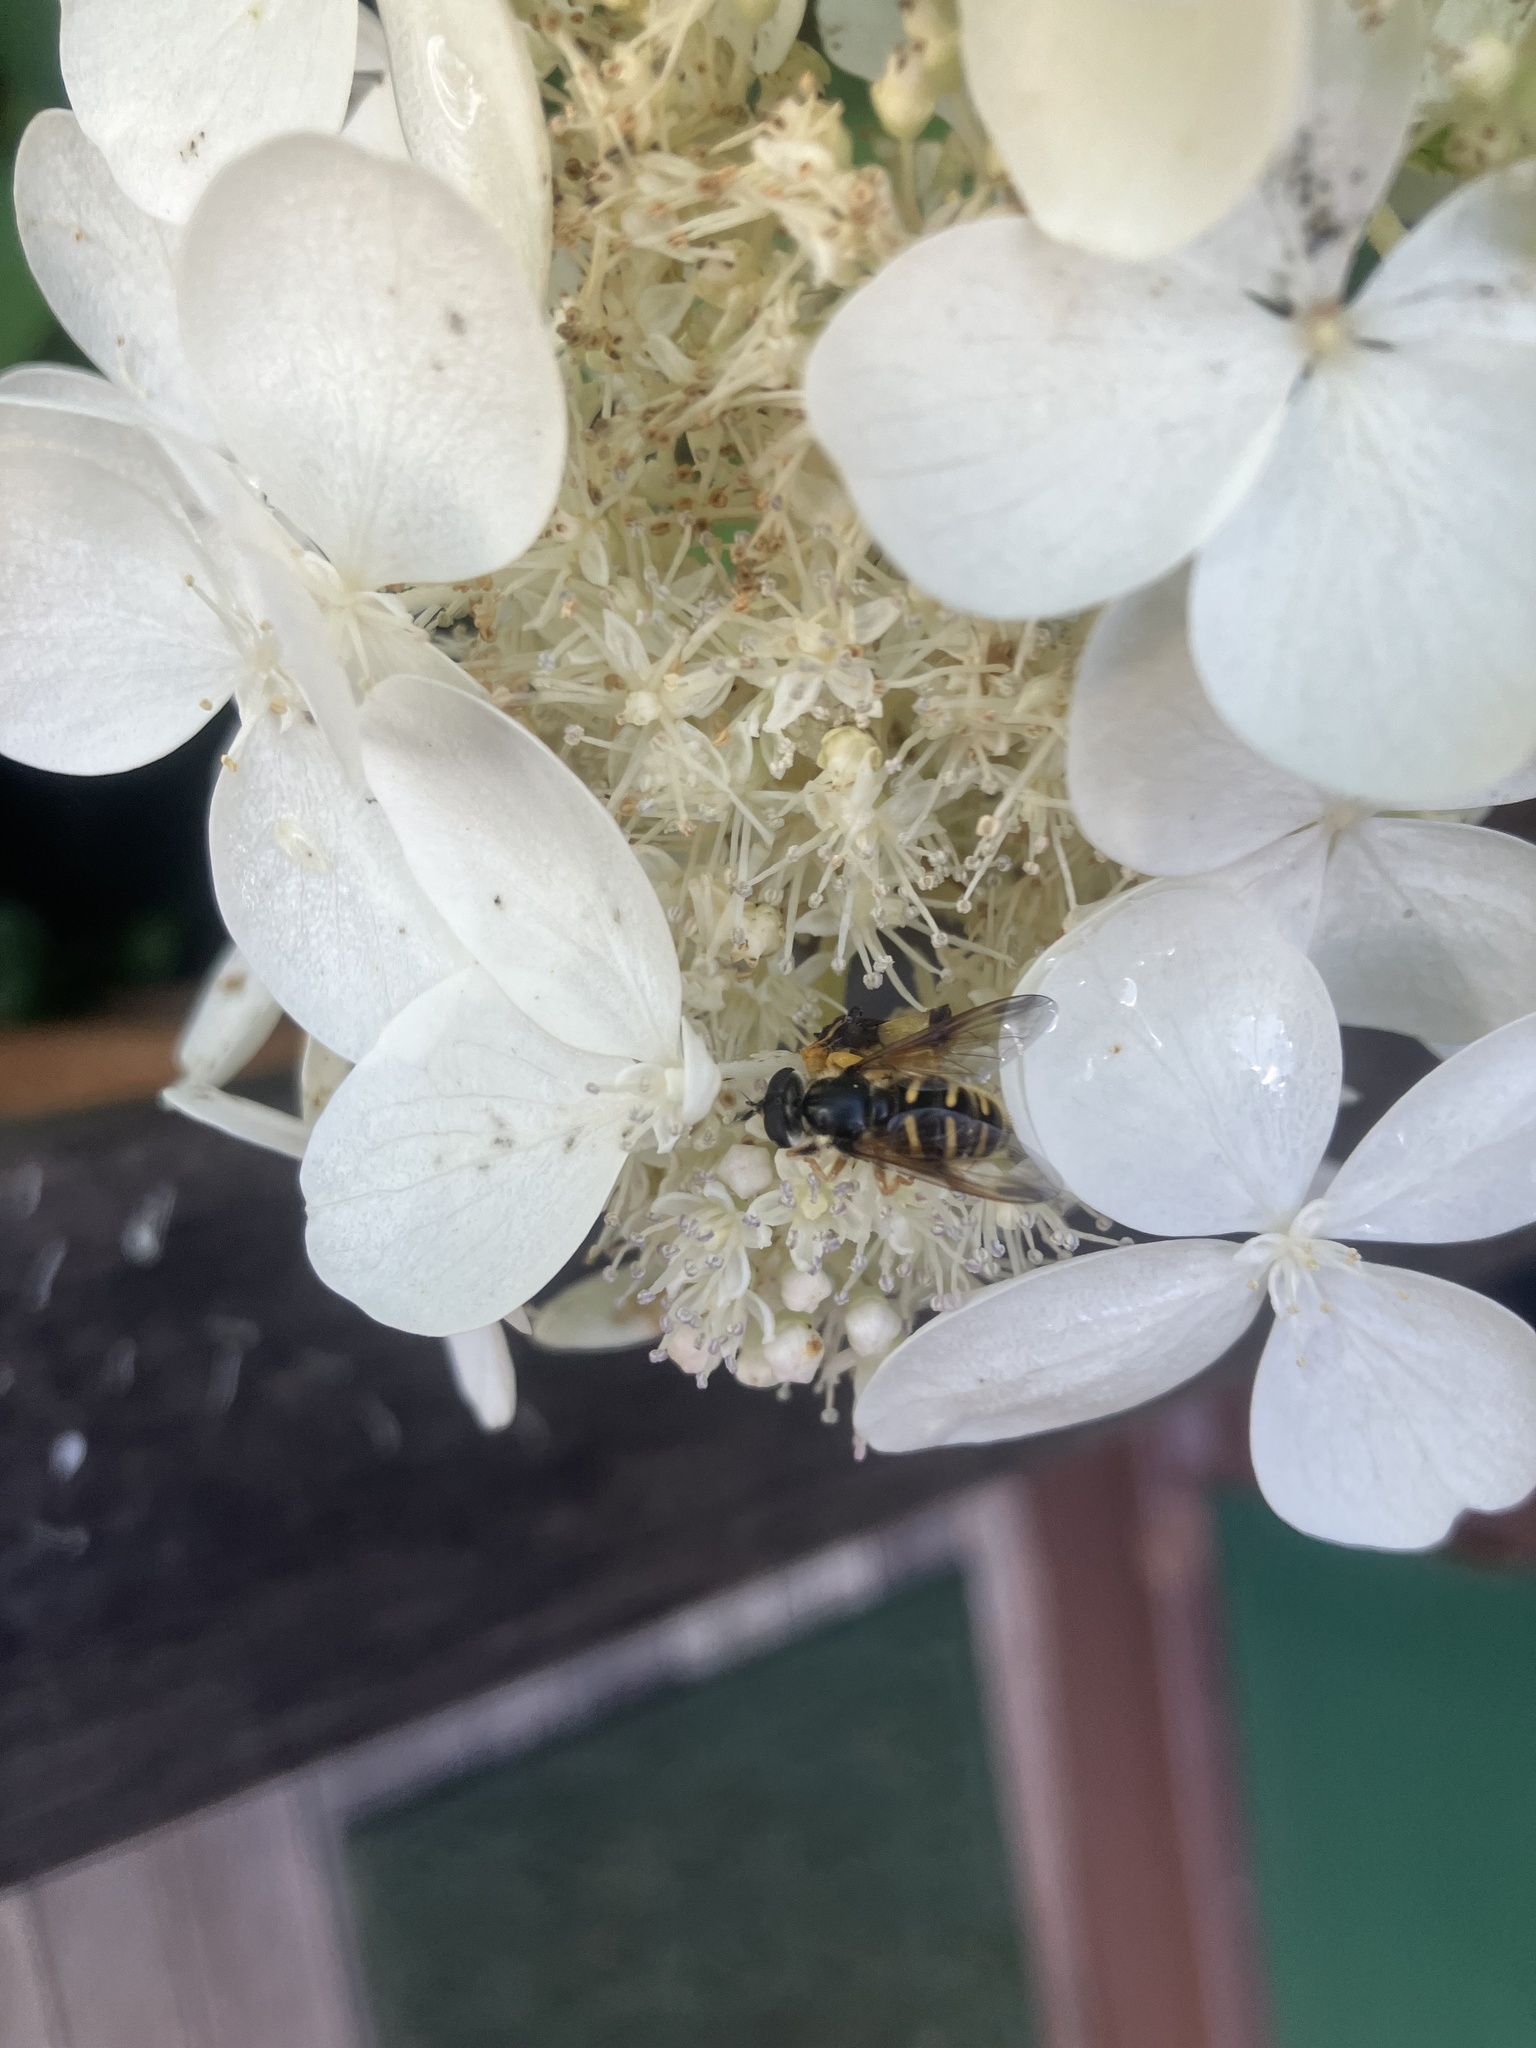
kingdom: Animalia
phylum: Arthropoda
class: Insecta
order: Diptera
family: Syrphidae
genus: Sericomyia
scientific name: Sericomyia chrysotoxoides
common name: Oblique-banded pond fly
